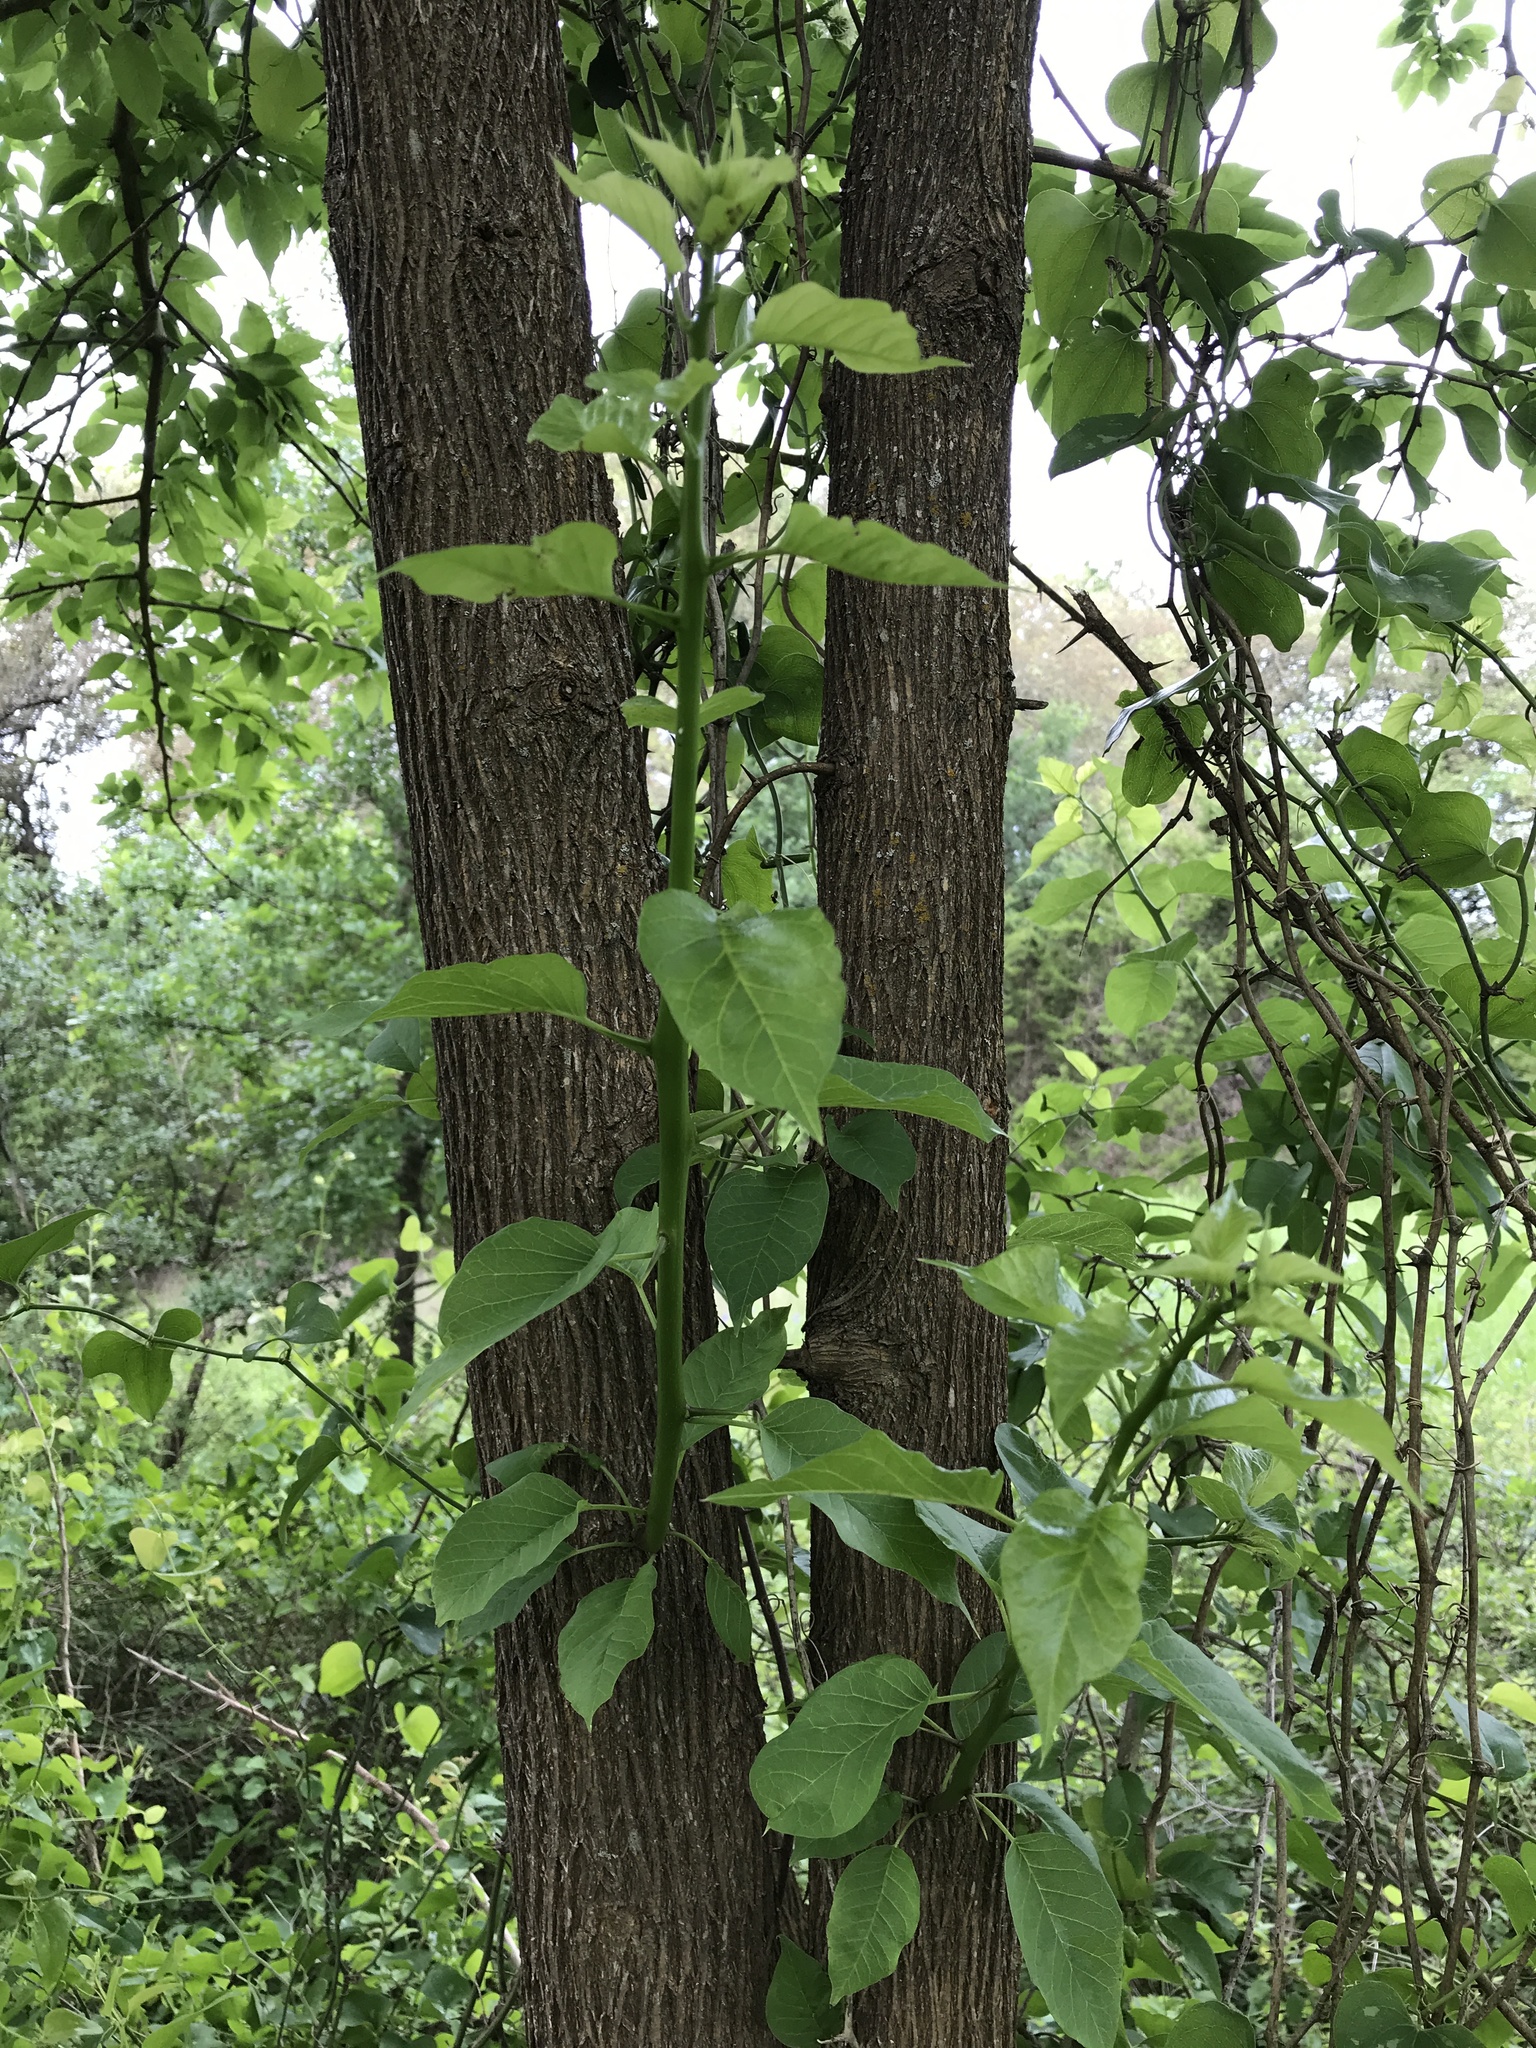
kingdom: Plantae
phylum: Tracheophyta
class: Magnoliopsida
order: Rosales
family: Moraceae
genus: Maclura
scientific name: Maclura pomifera
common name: Osage-orange
